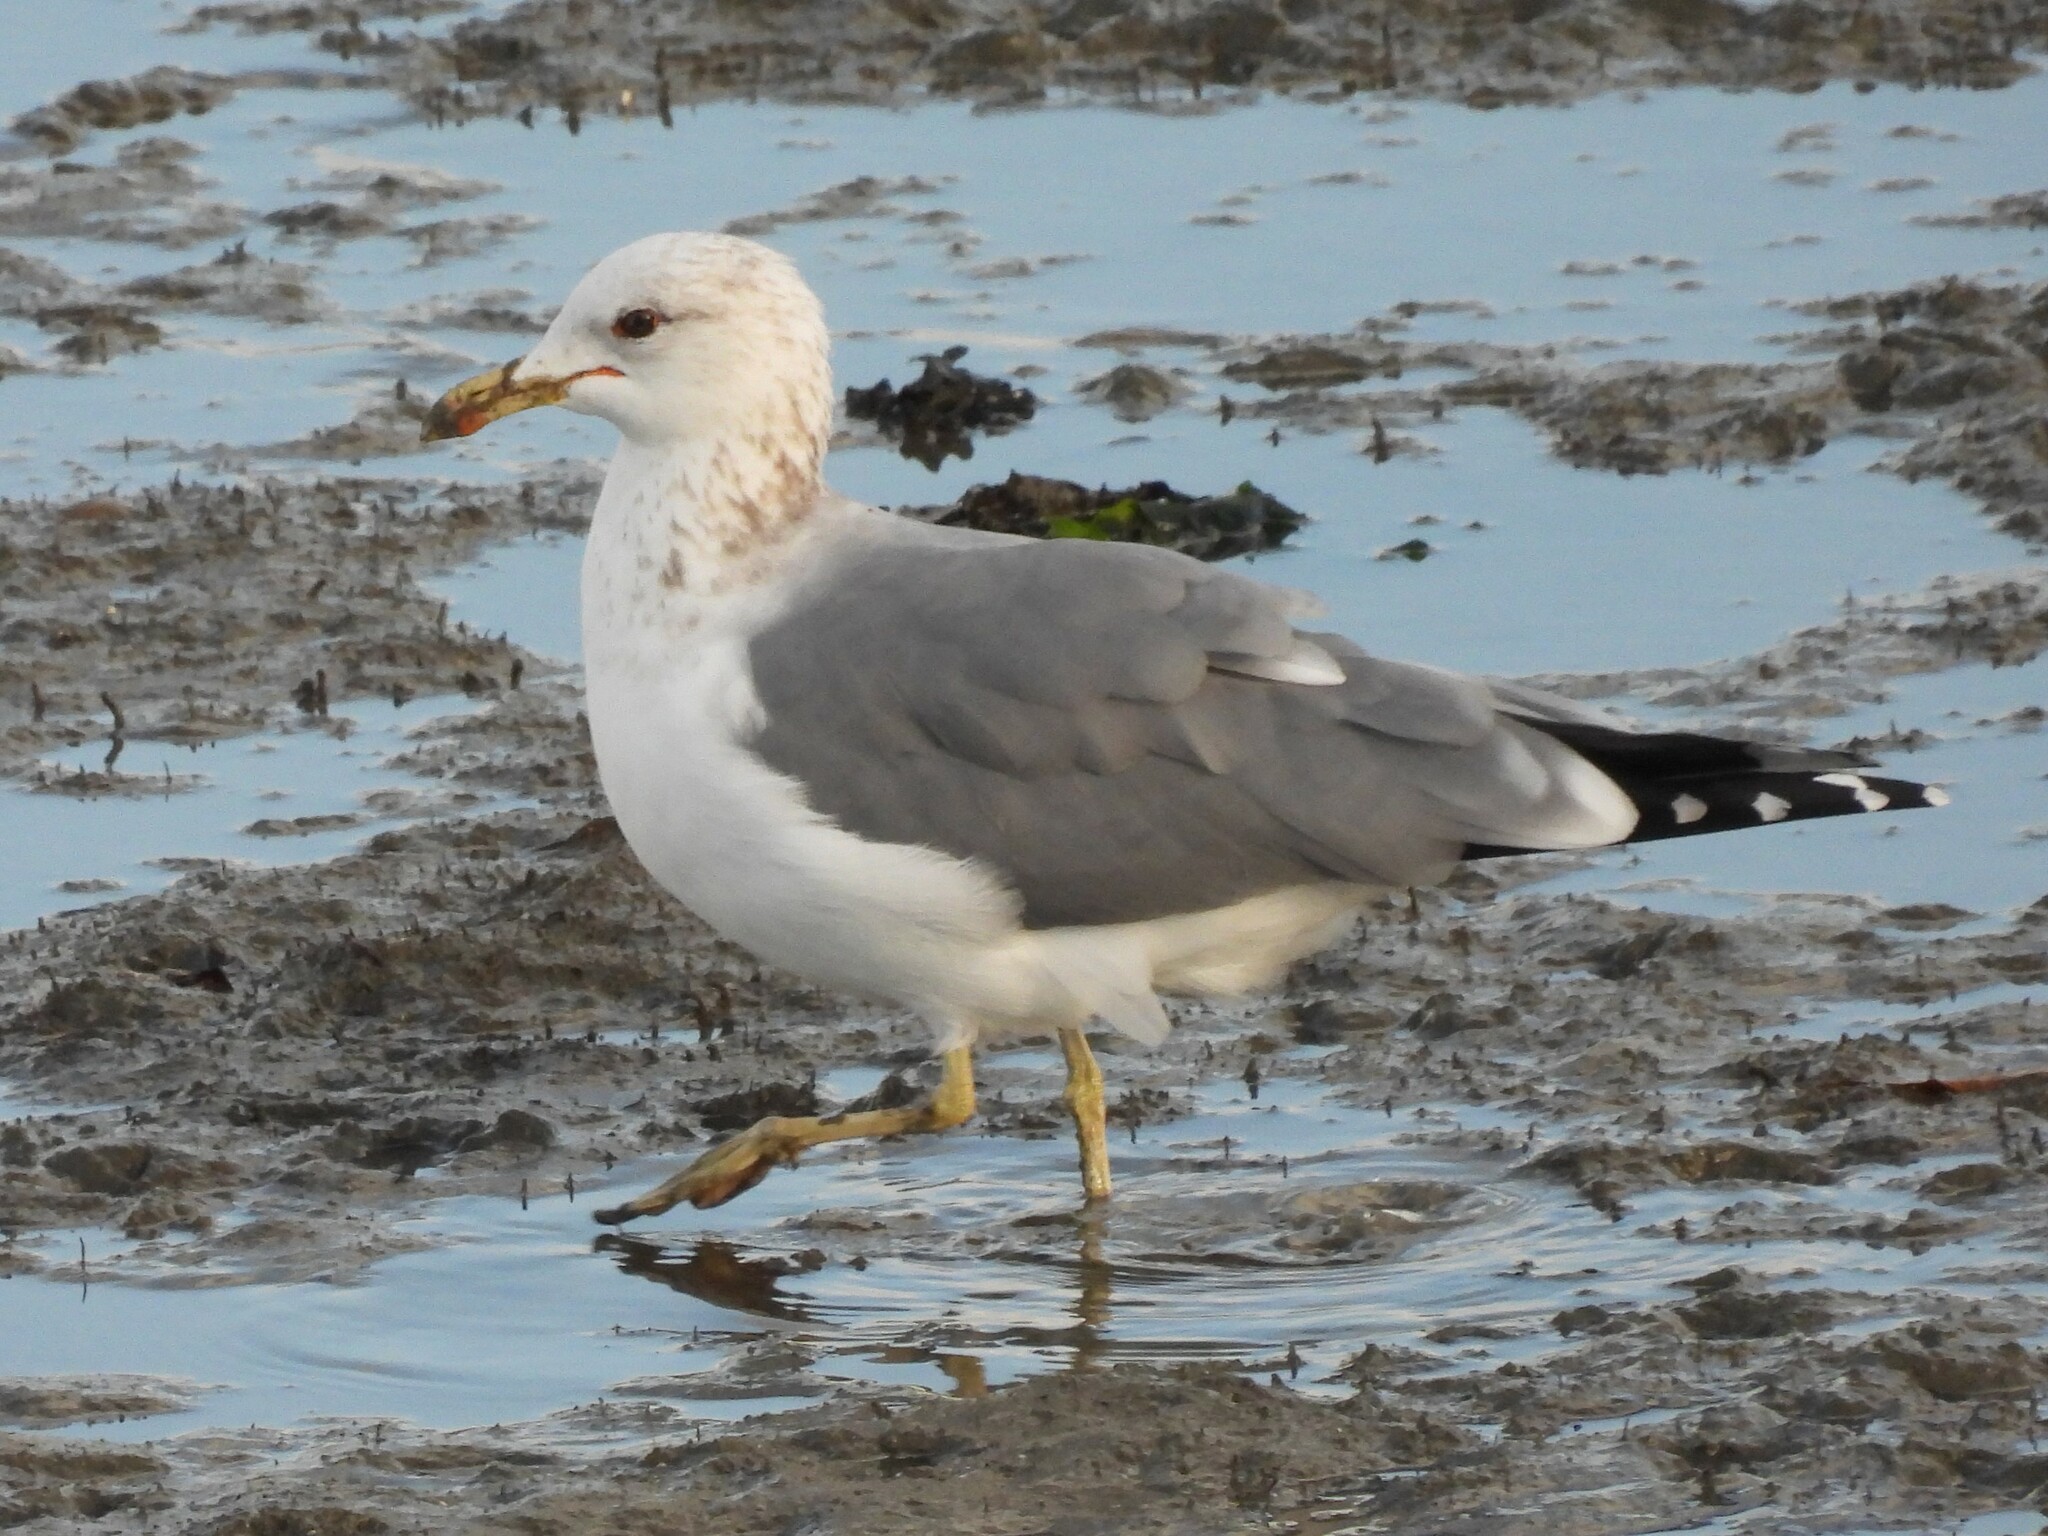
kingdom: Animalia
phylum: Chordata
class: Aves
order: Charadriiformes
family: Laridae
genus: Larus
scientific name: Larus californicus
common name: California gull
